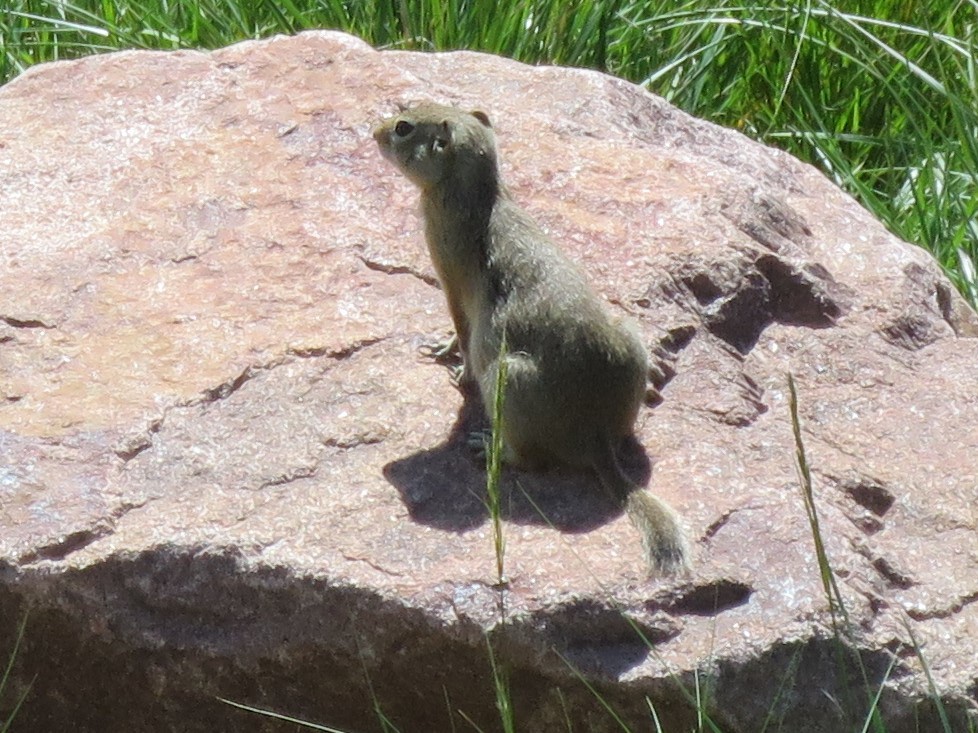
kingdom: Animalia
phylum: Chordata
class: Mammalia
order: Rodentia
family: Sciuridae
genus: Urocitellus
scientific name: Urocitellus elegans
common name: Wyoming ground squirrel
